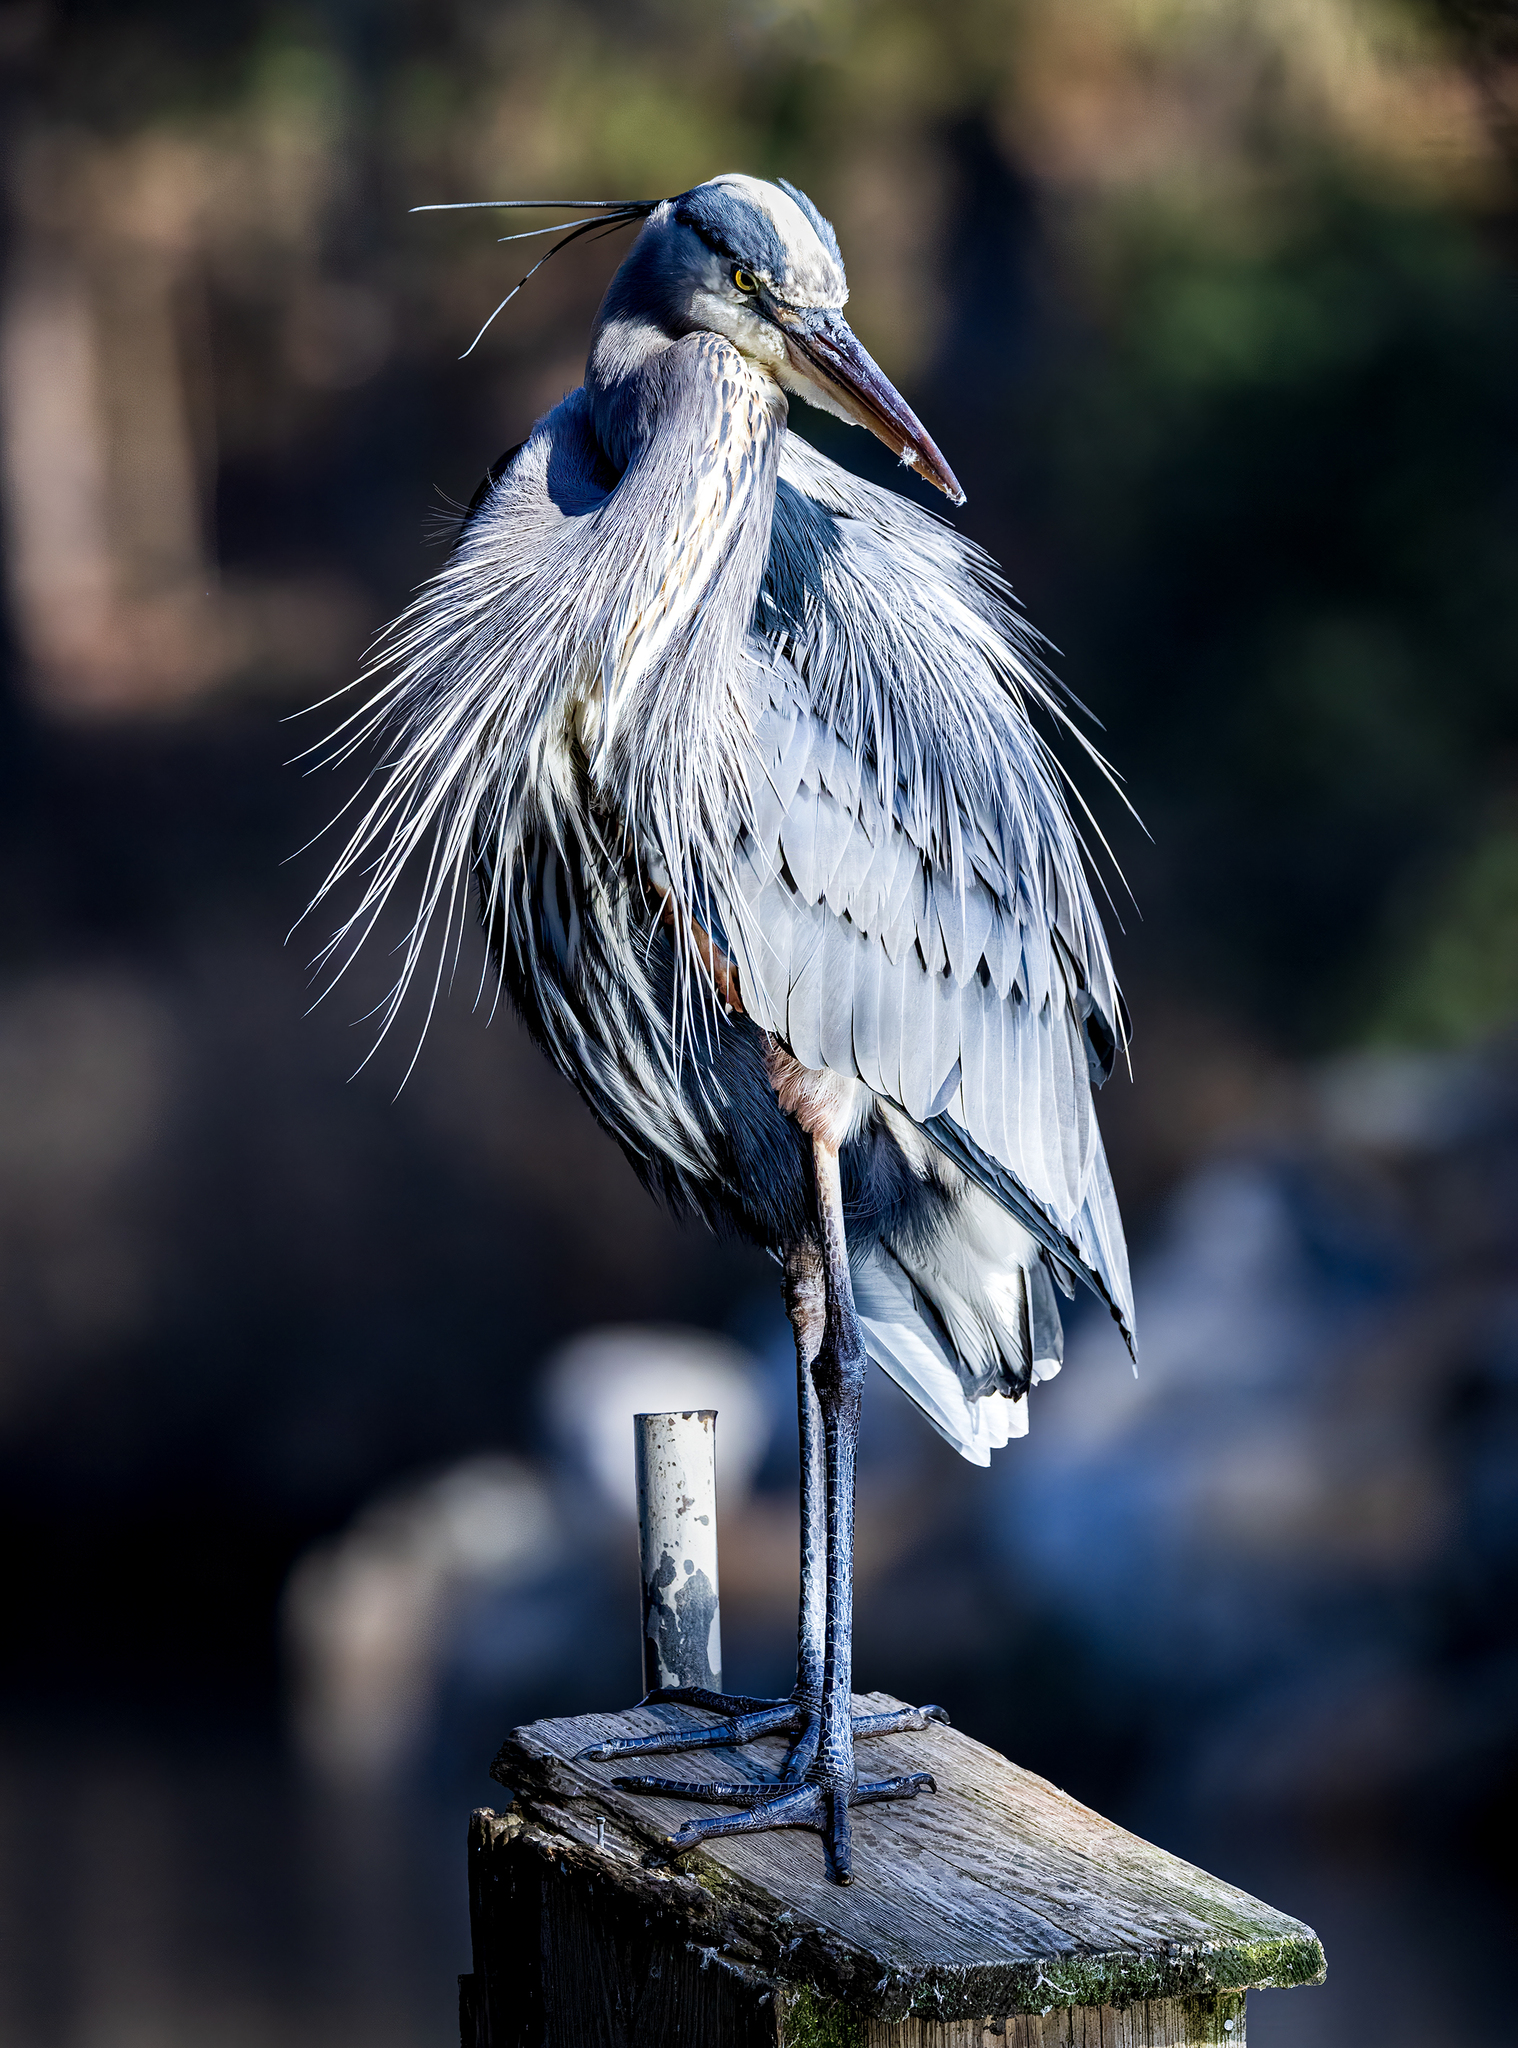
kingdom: Animalia
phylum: Chordata
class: Aves
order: Pelecaniformes
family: Ardeidae
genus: Ardea
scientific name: Ardea herodias
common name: Great blue heron
